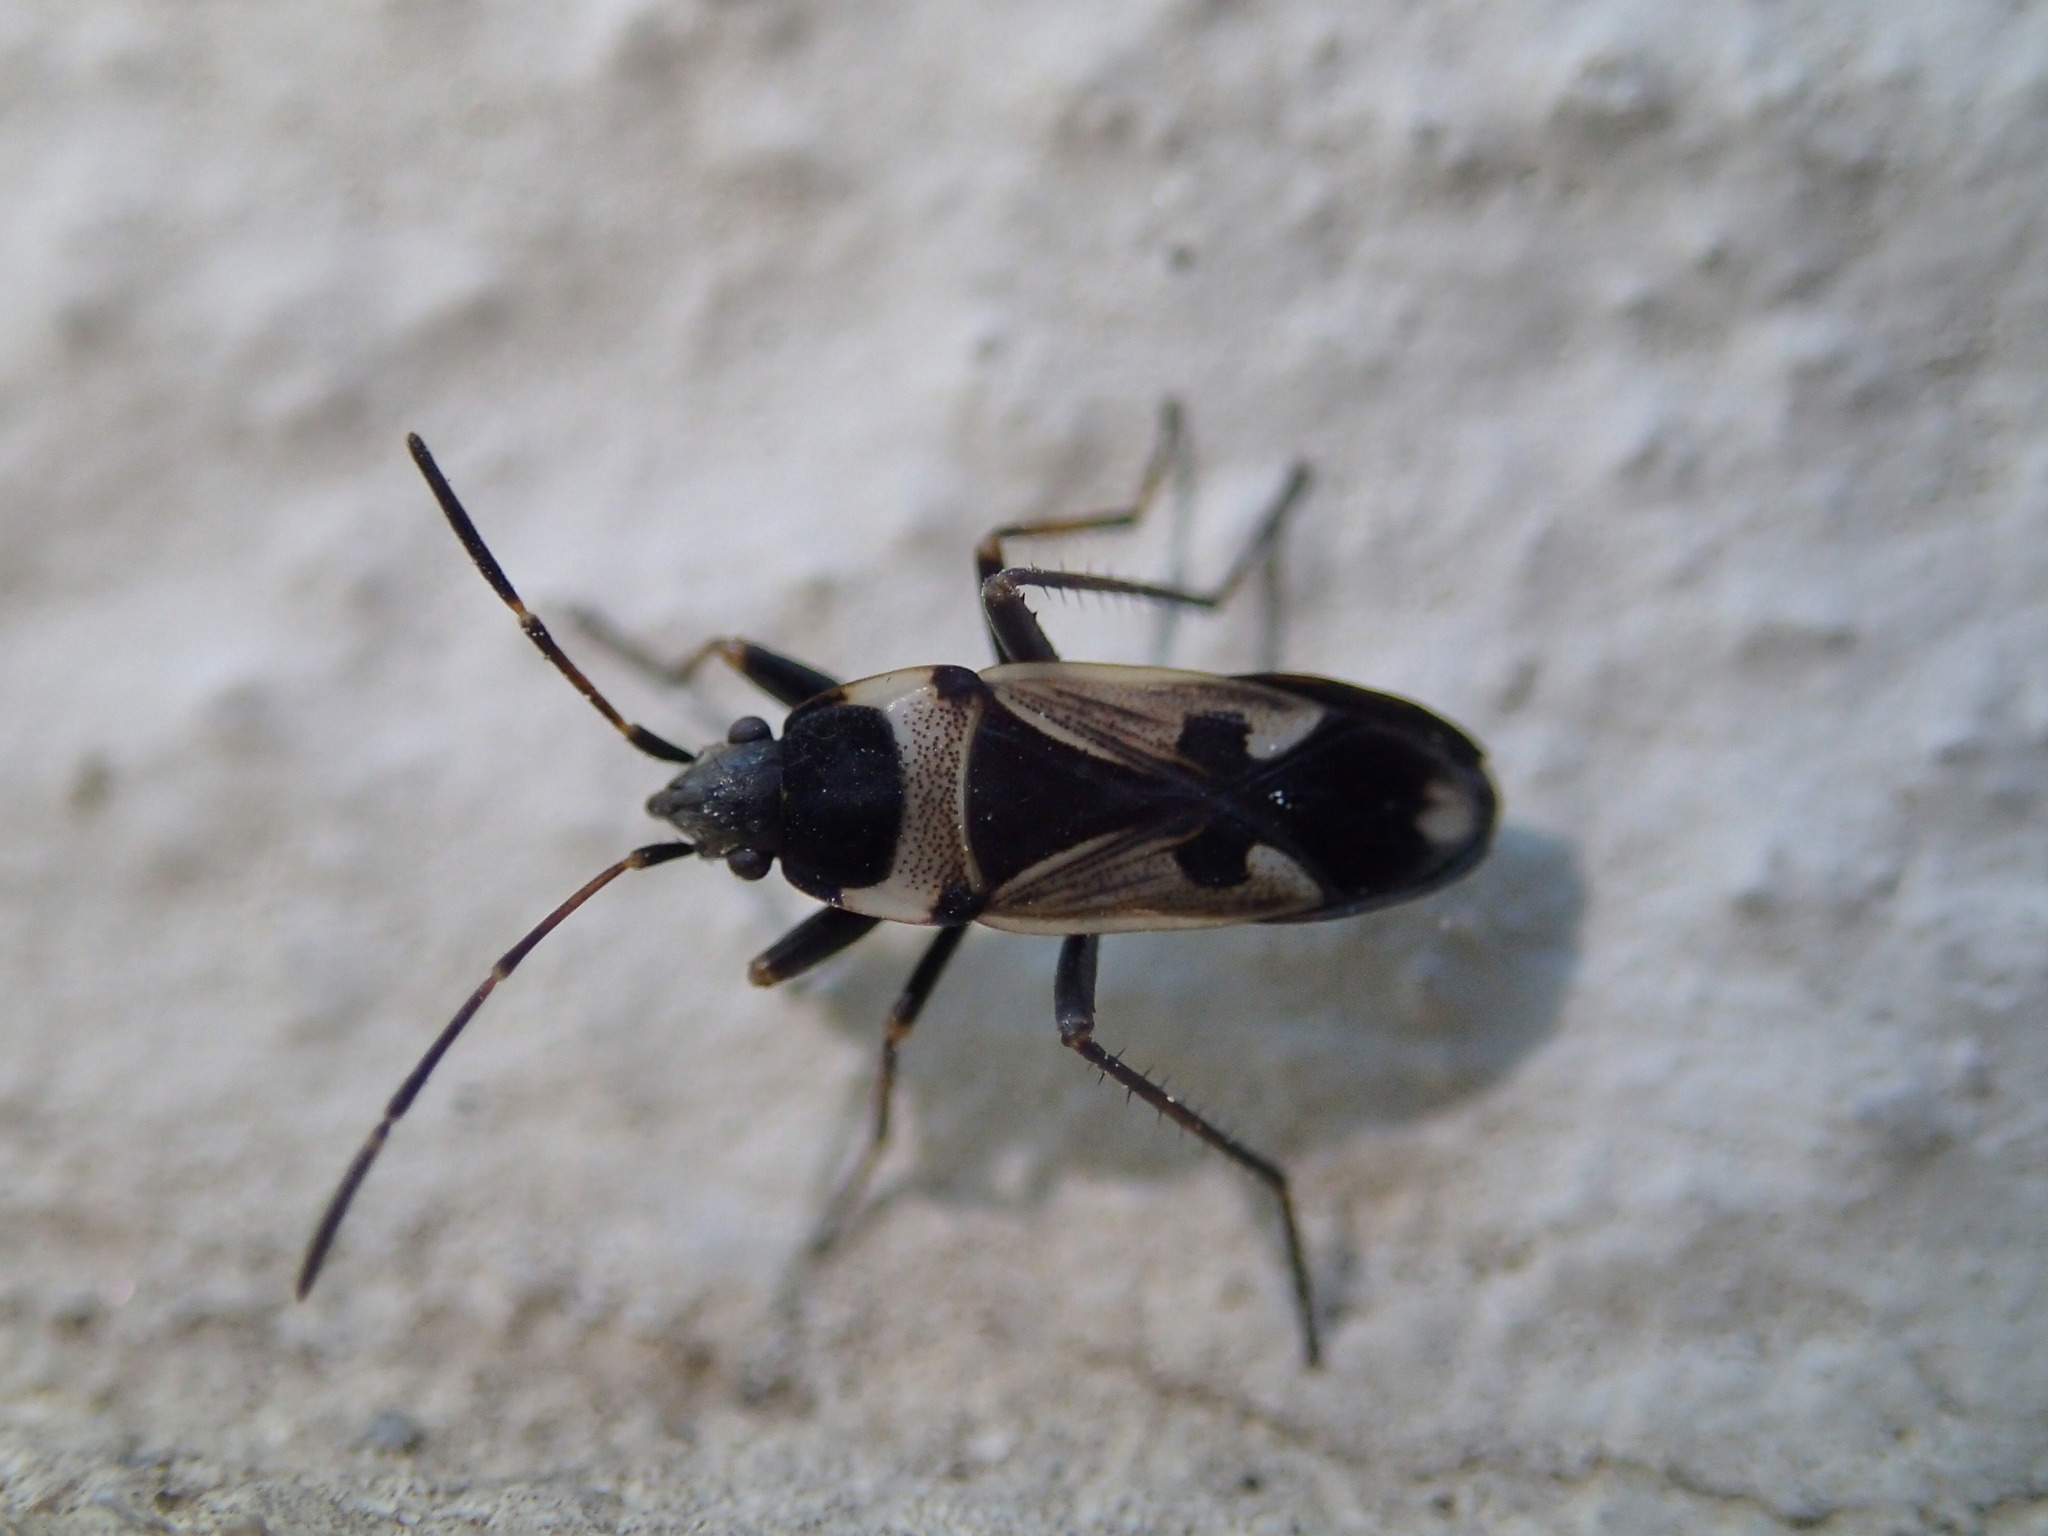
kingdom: Animalia
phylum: Arthropoda
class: Insecta
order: Hemiptera
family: Rhyparochromidae
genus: Raglius
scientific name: Raglius confusus
